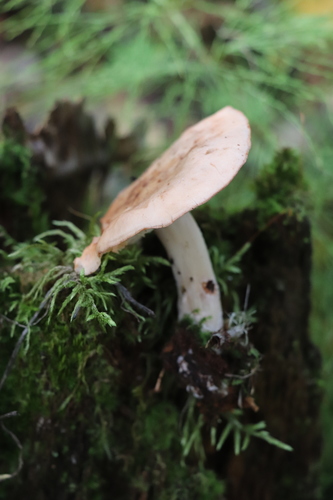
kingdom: Fungi
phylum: Basidiomycota
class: Agaricomycetes
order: Agaricales
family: Omphalotaceae
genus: Rhodocollybia
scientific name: Rhodocollybia maculata
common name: Spotted tough-shank
